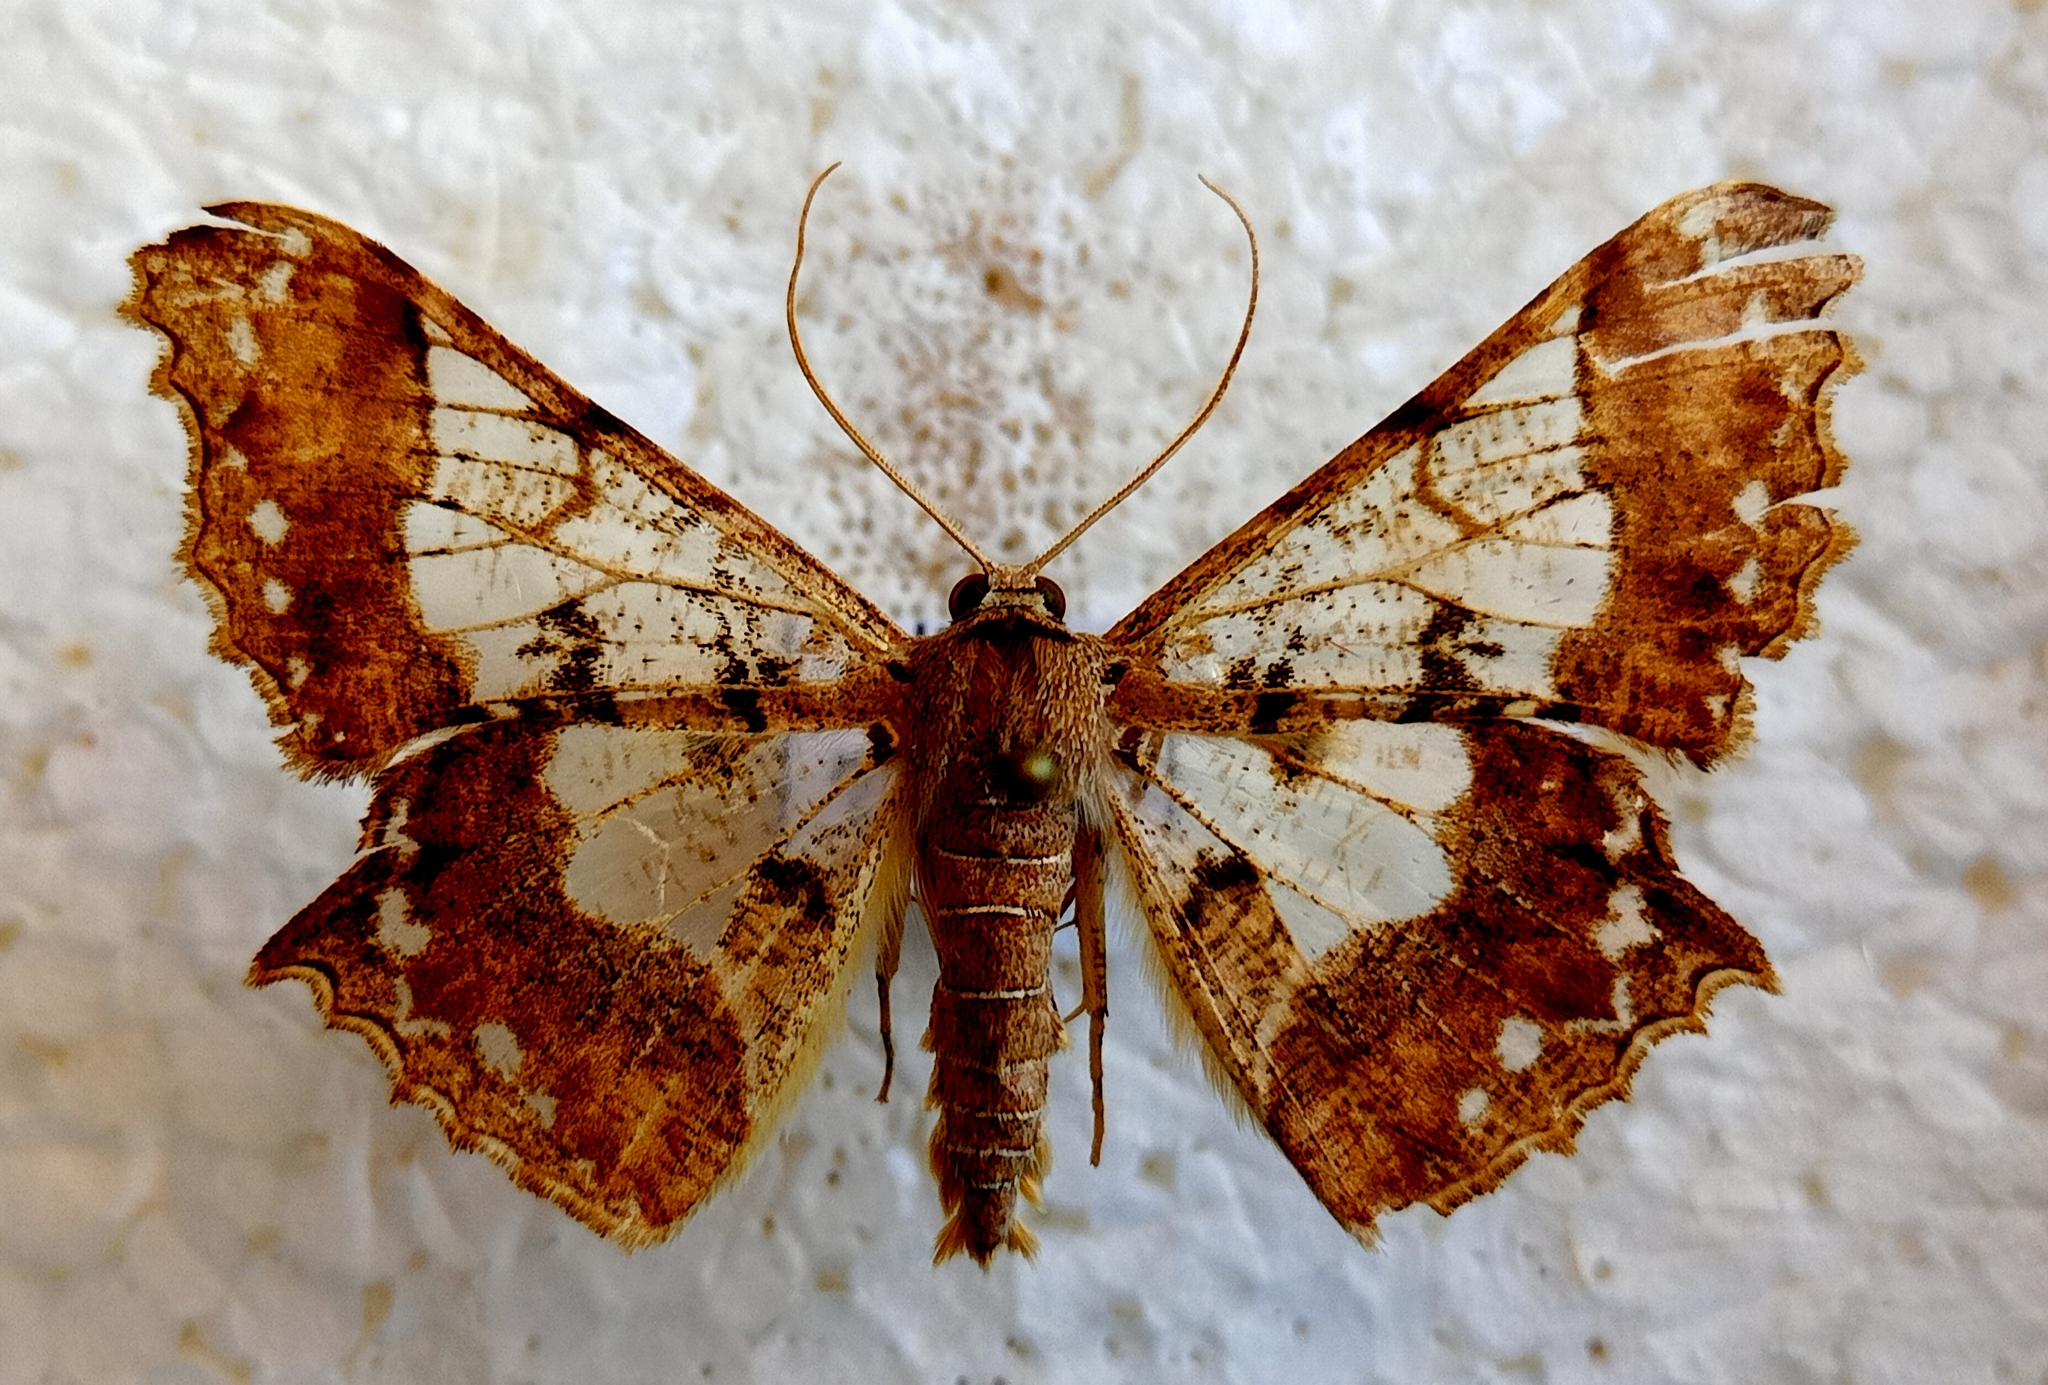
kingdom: Animalia
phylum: Arthropoda
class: Insecta
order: Lepidoptera
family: Geometridae
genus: Krananda
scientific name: Krananda semihyalina
